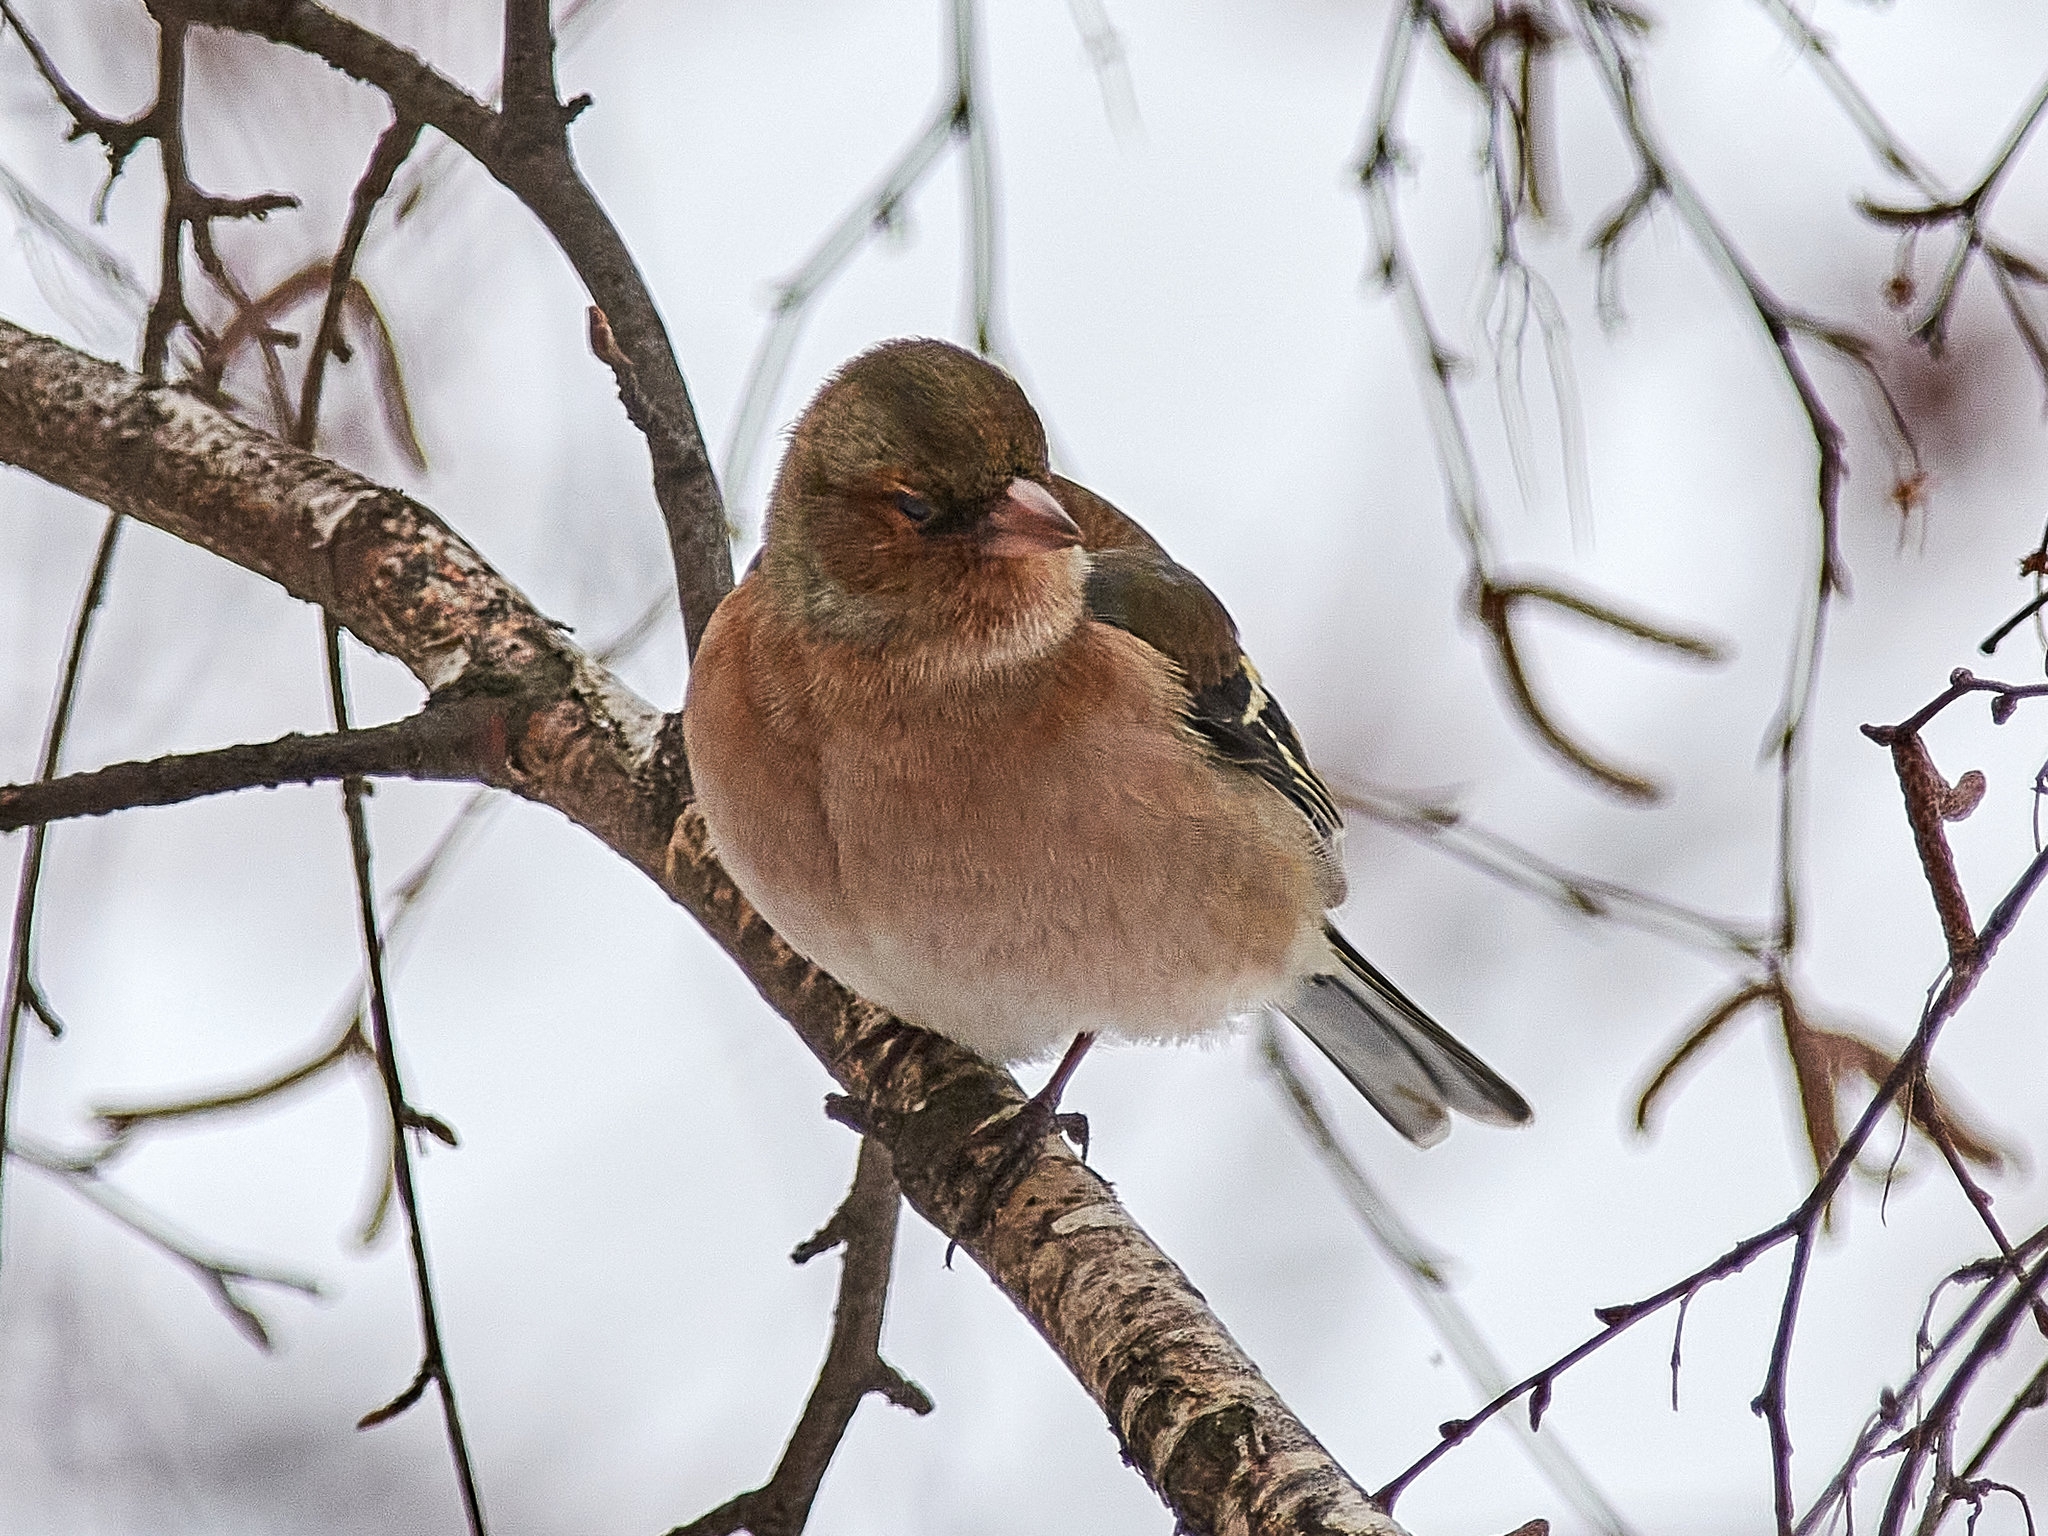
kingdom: Animalia
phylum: Chordata
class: Aves
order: Passeriformes
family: Fringillidae
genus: Fringilla
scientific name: Fringilla coelebs
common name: Common chaffinch
